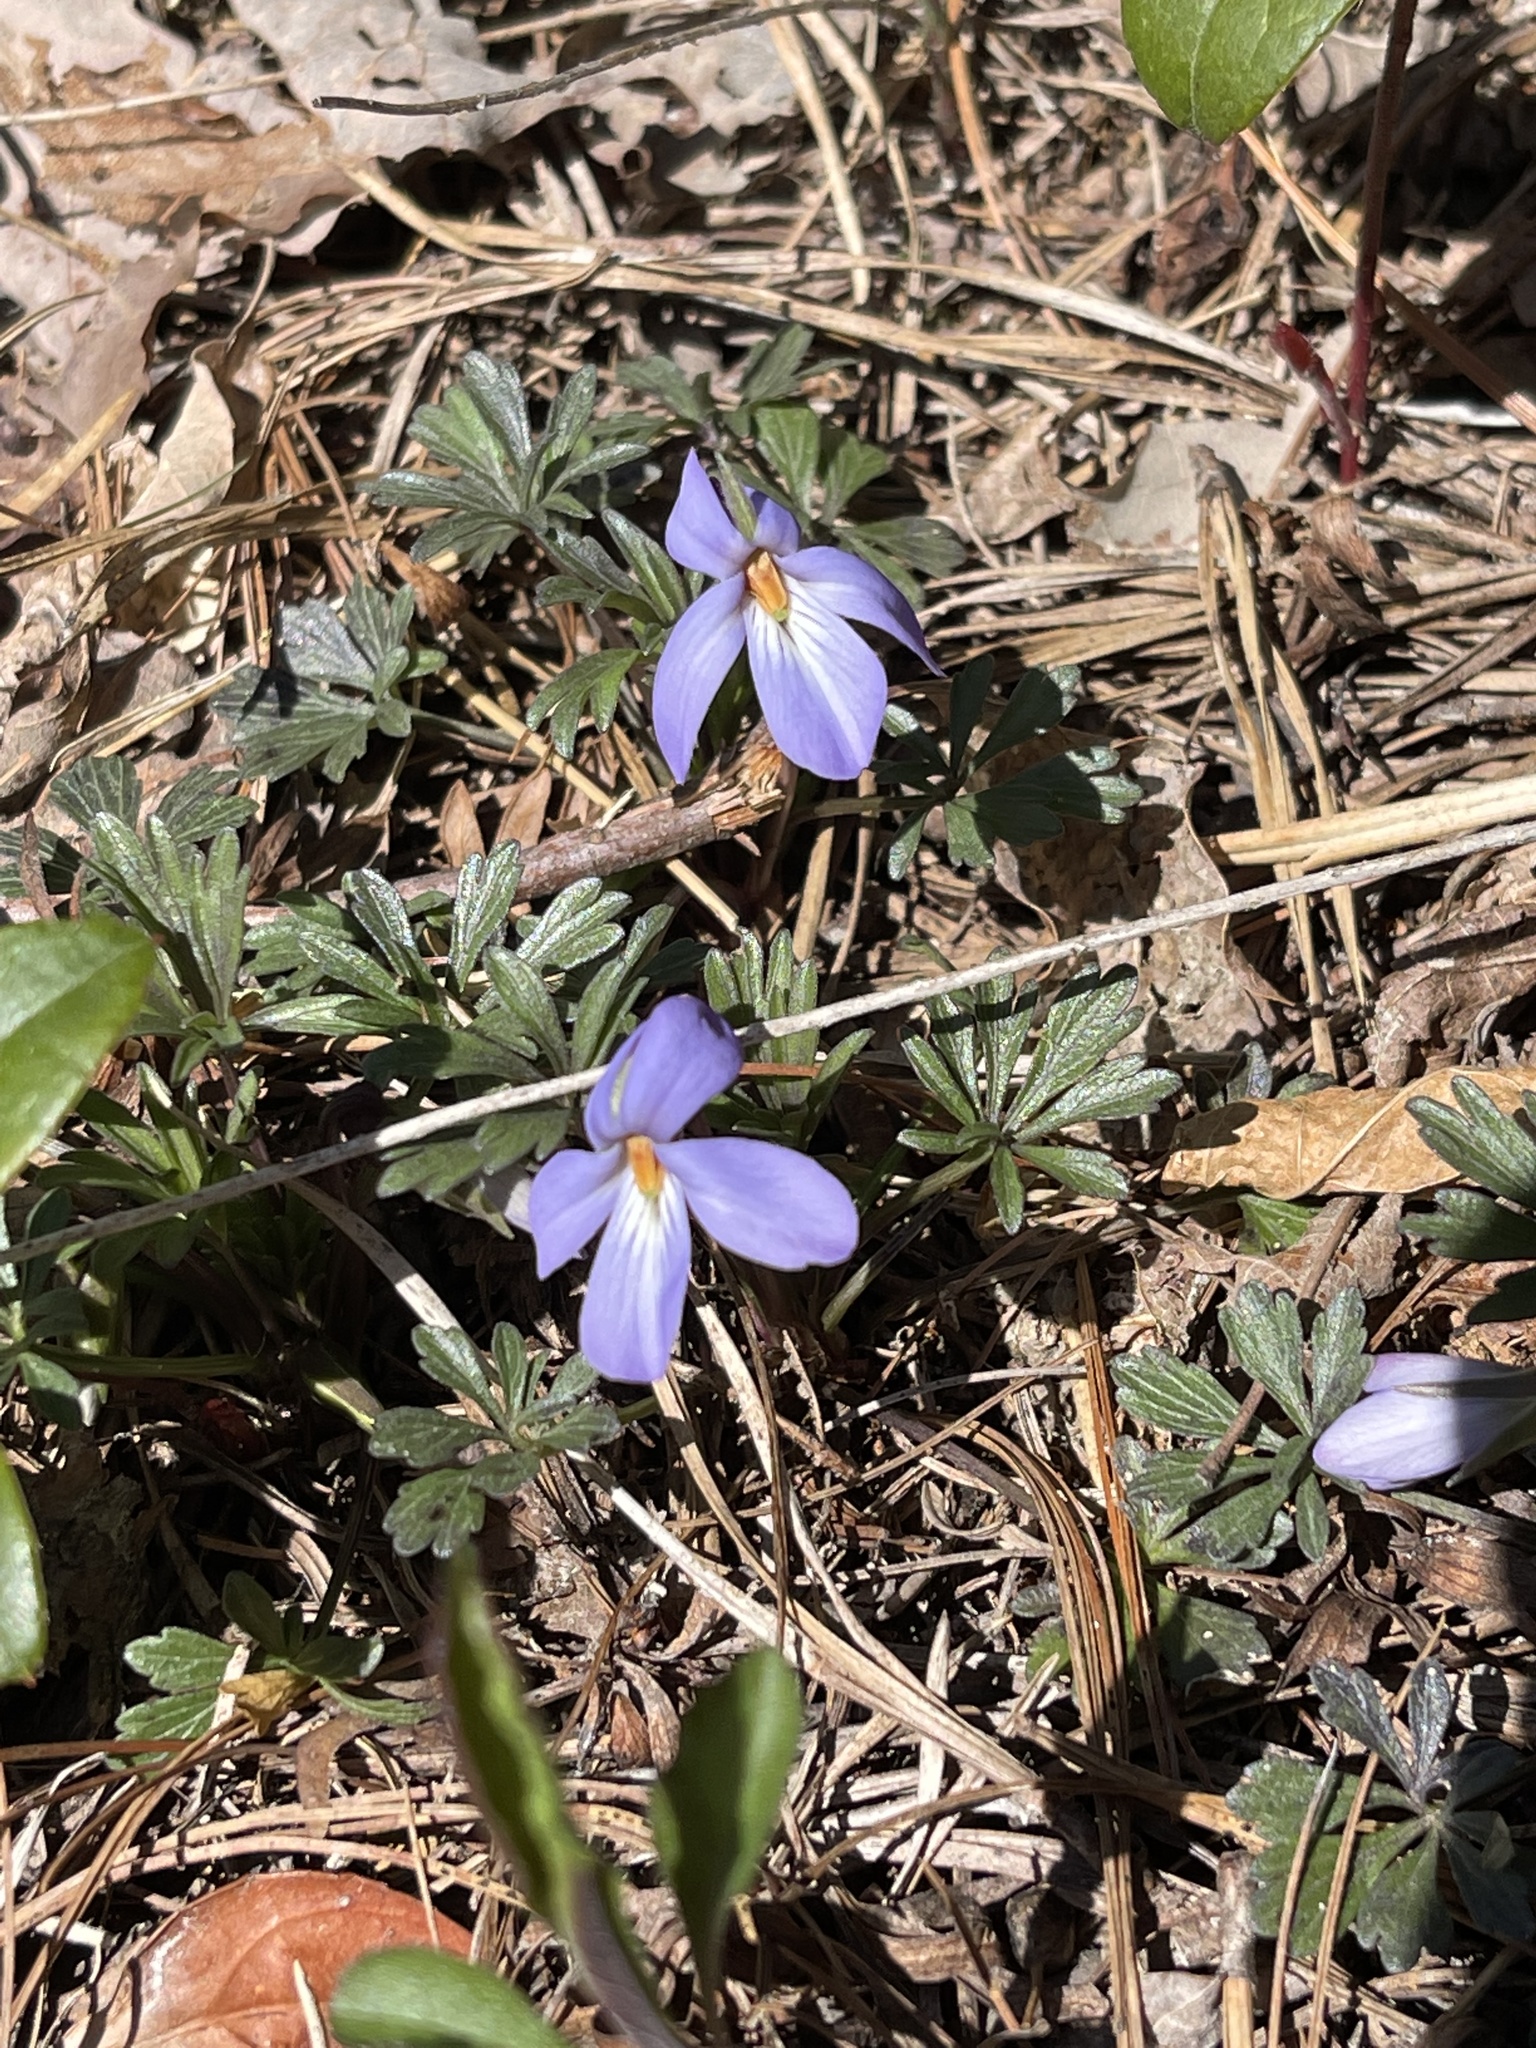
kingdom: Plantae
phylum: Tracheophyta
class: Magnoliopsida
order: Malpighiales
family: Violaceae
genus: Viola
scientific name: Viola pedata
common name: Pansy violet
